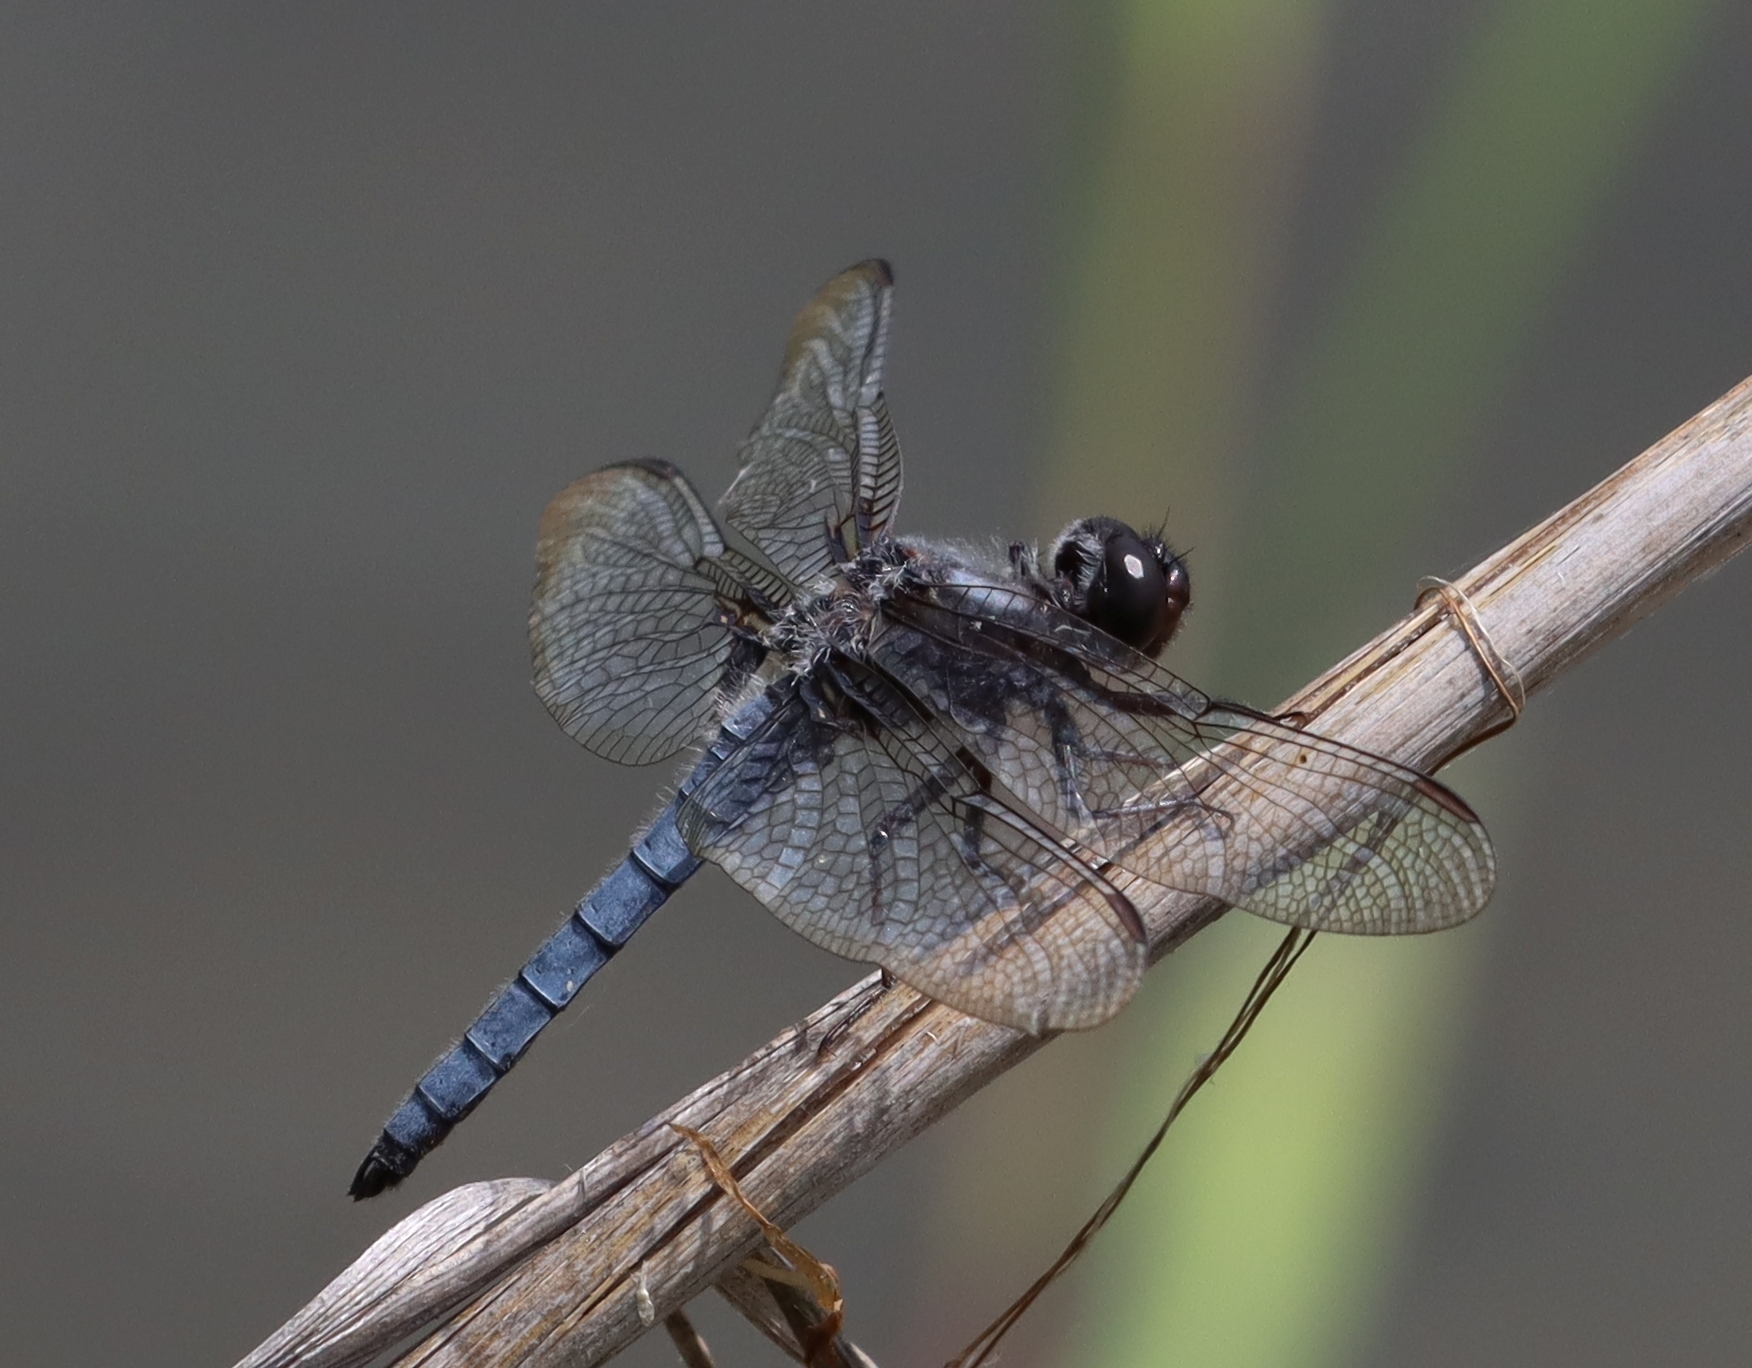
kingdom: Animalia
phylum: Arthropoda
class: Insecta
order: Odonata
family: Libellulidae
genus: Ladona
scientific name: Ladona deplanata
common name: Blue corporal
